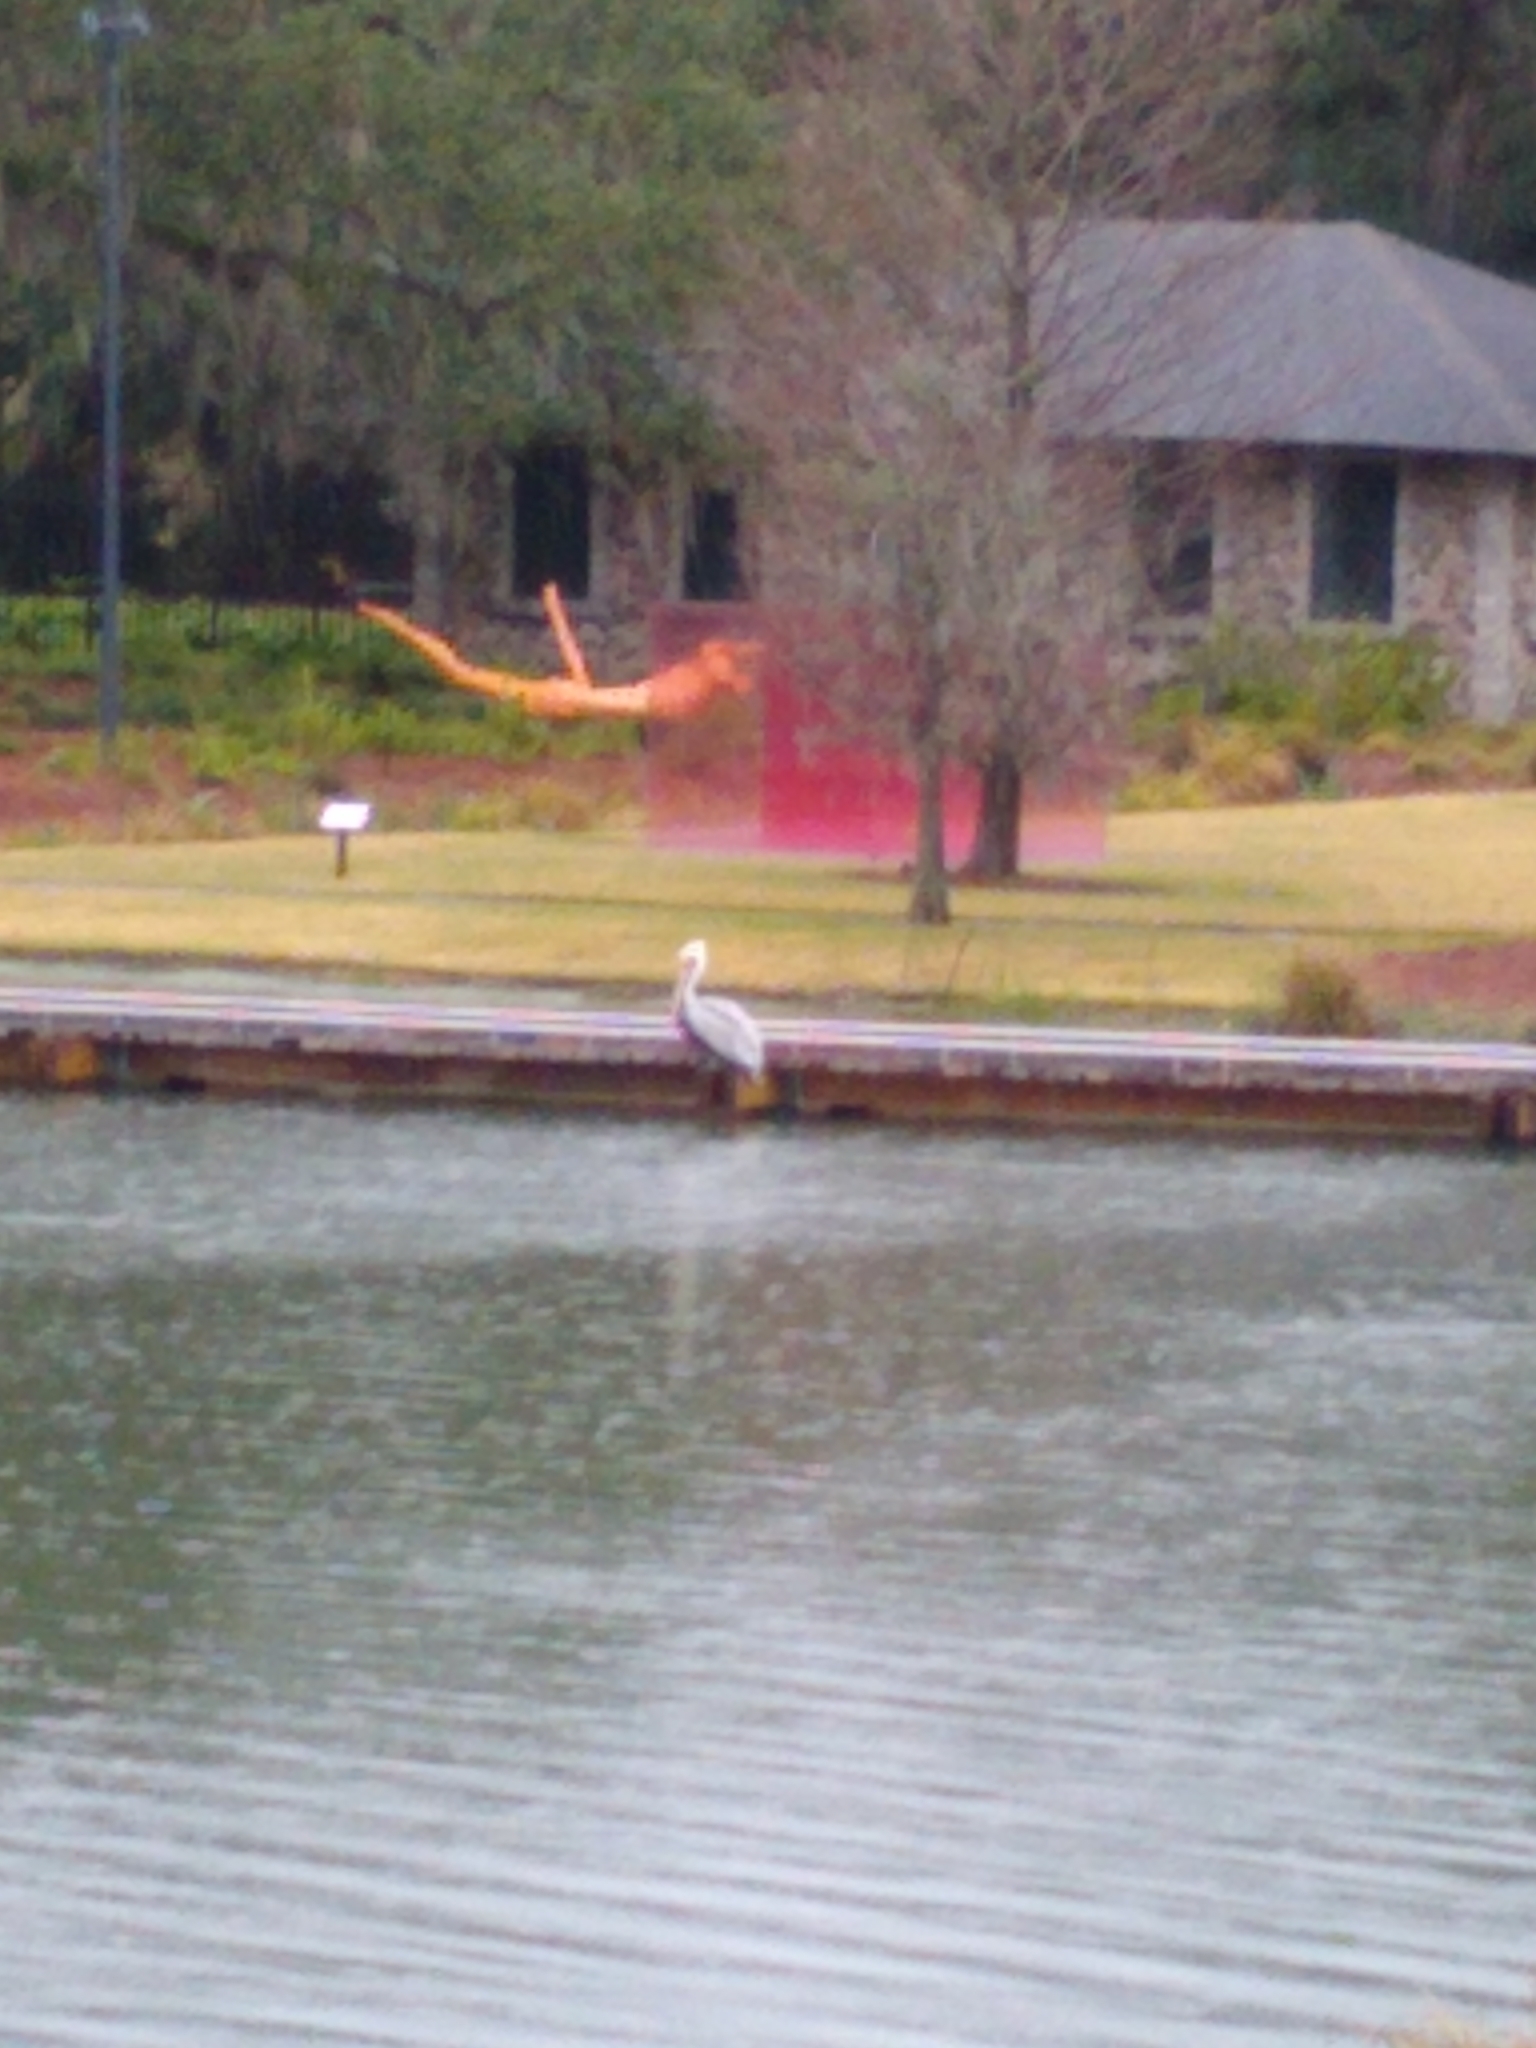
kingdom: Animalia
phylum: Chordata
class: Aves
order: Pelecaniformes
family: Pelecanidae
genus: Pelecanus
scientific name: Pelecanus occidentalis
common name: Brown pelican
